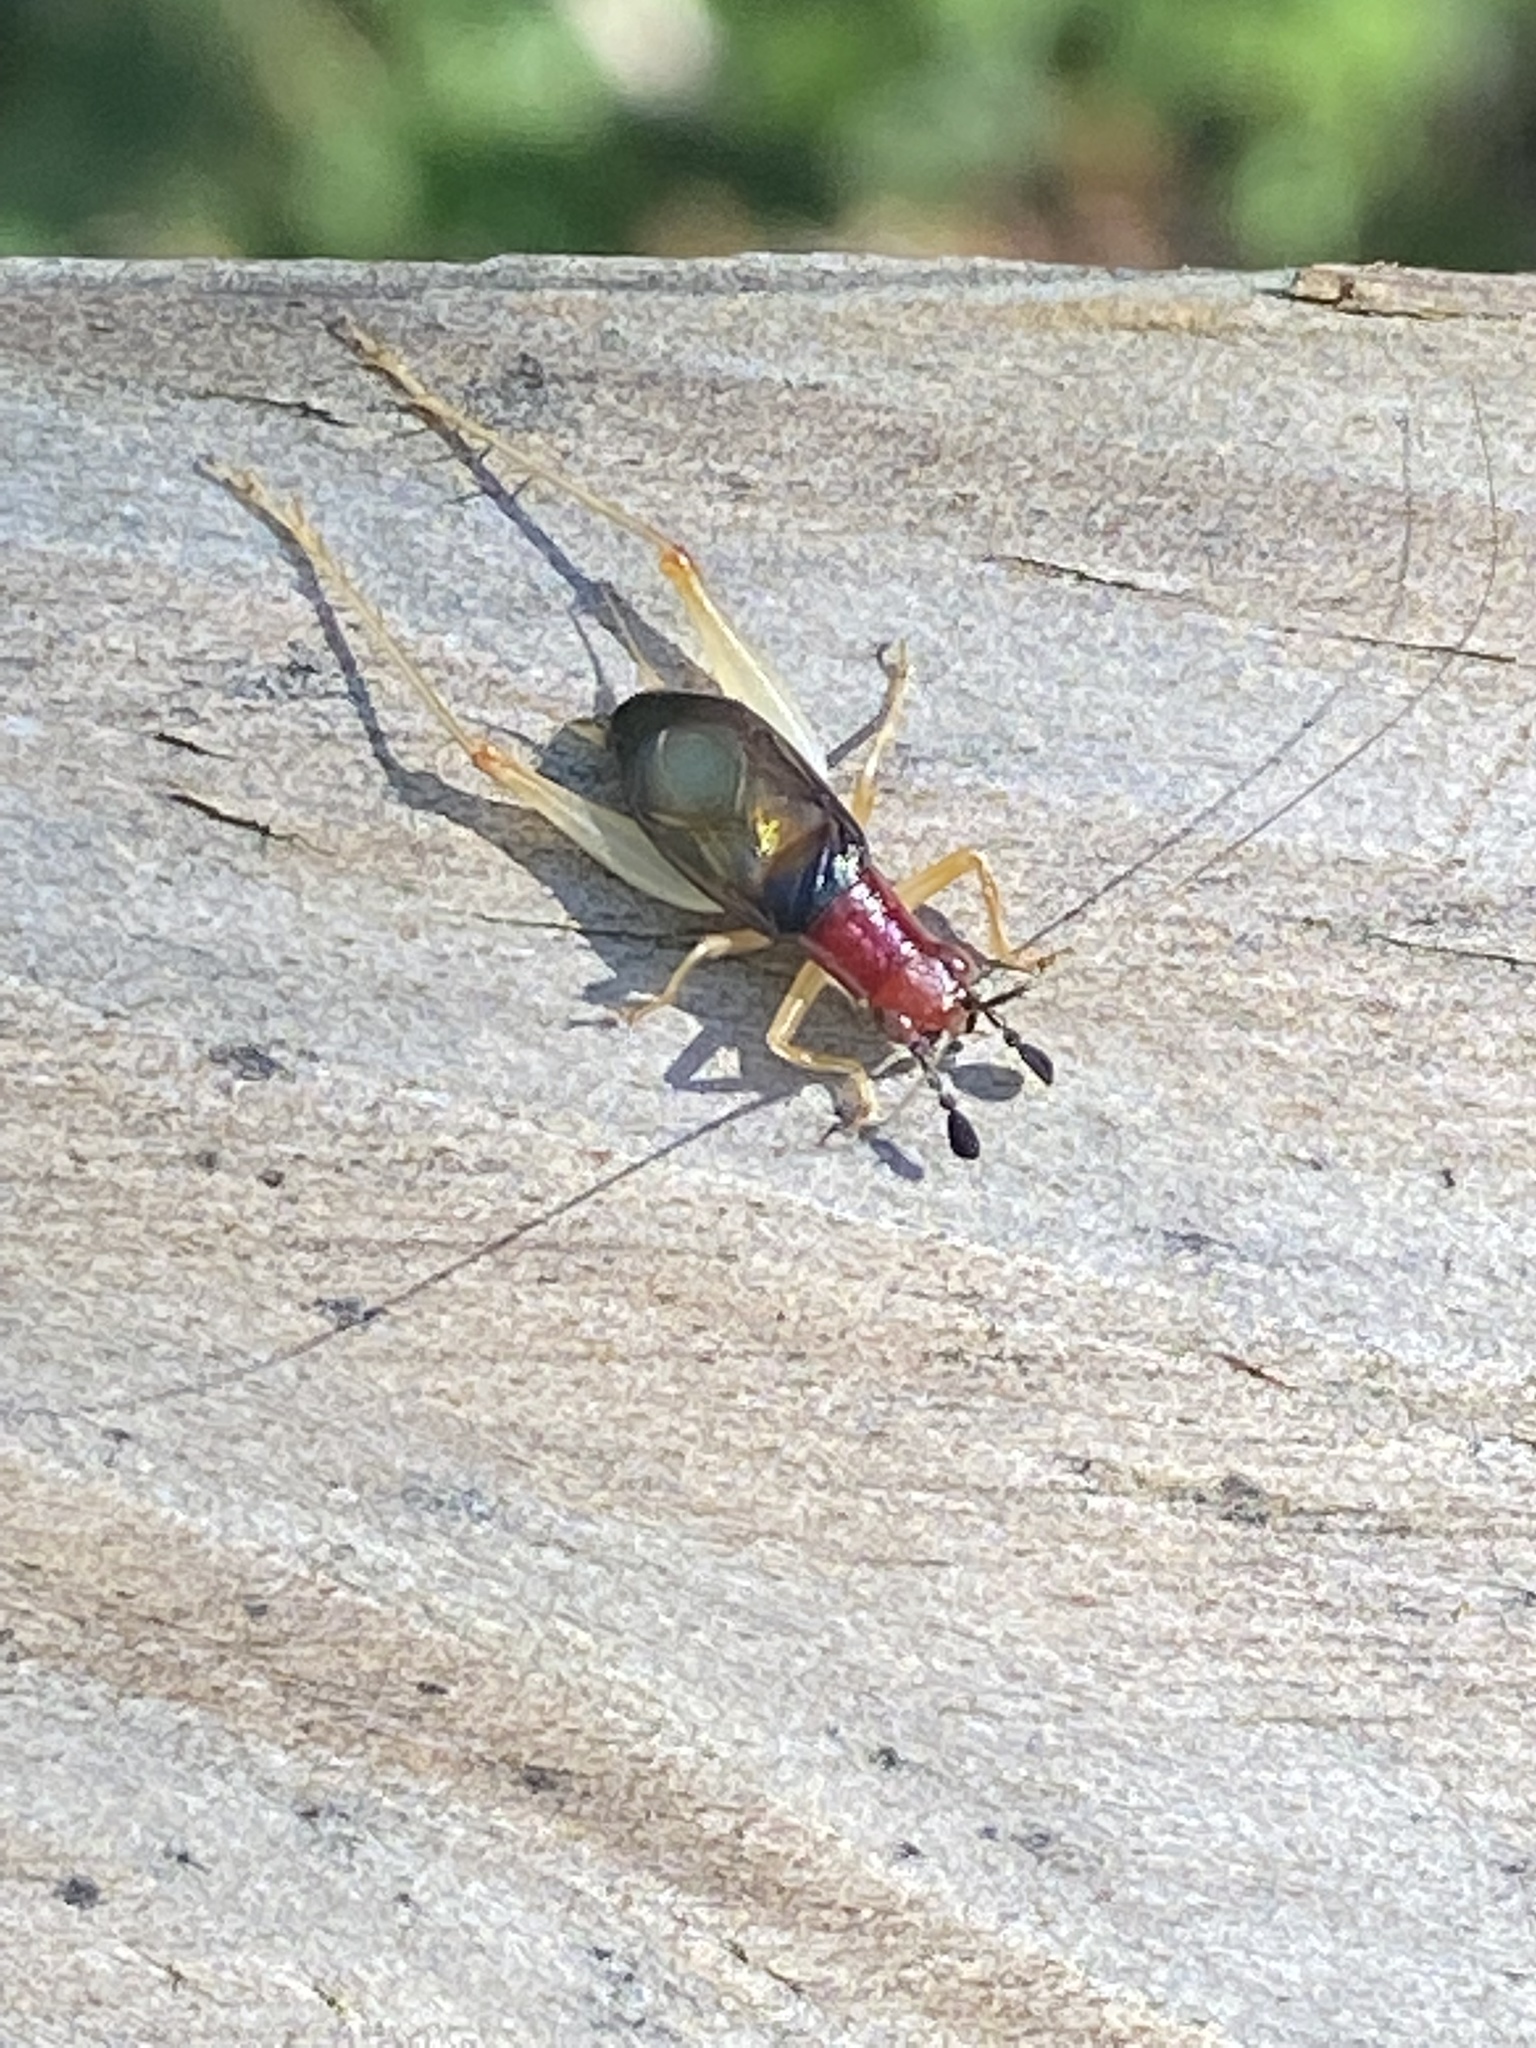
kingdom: Animalia
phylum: Arthropoda
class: Insecta
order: Orthoptera
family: Trigonidiidae
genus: Phyllopalpus
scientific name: Phyllopalpus pulchellus
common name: Handsome trig
